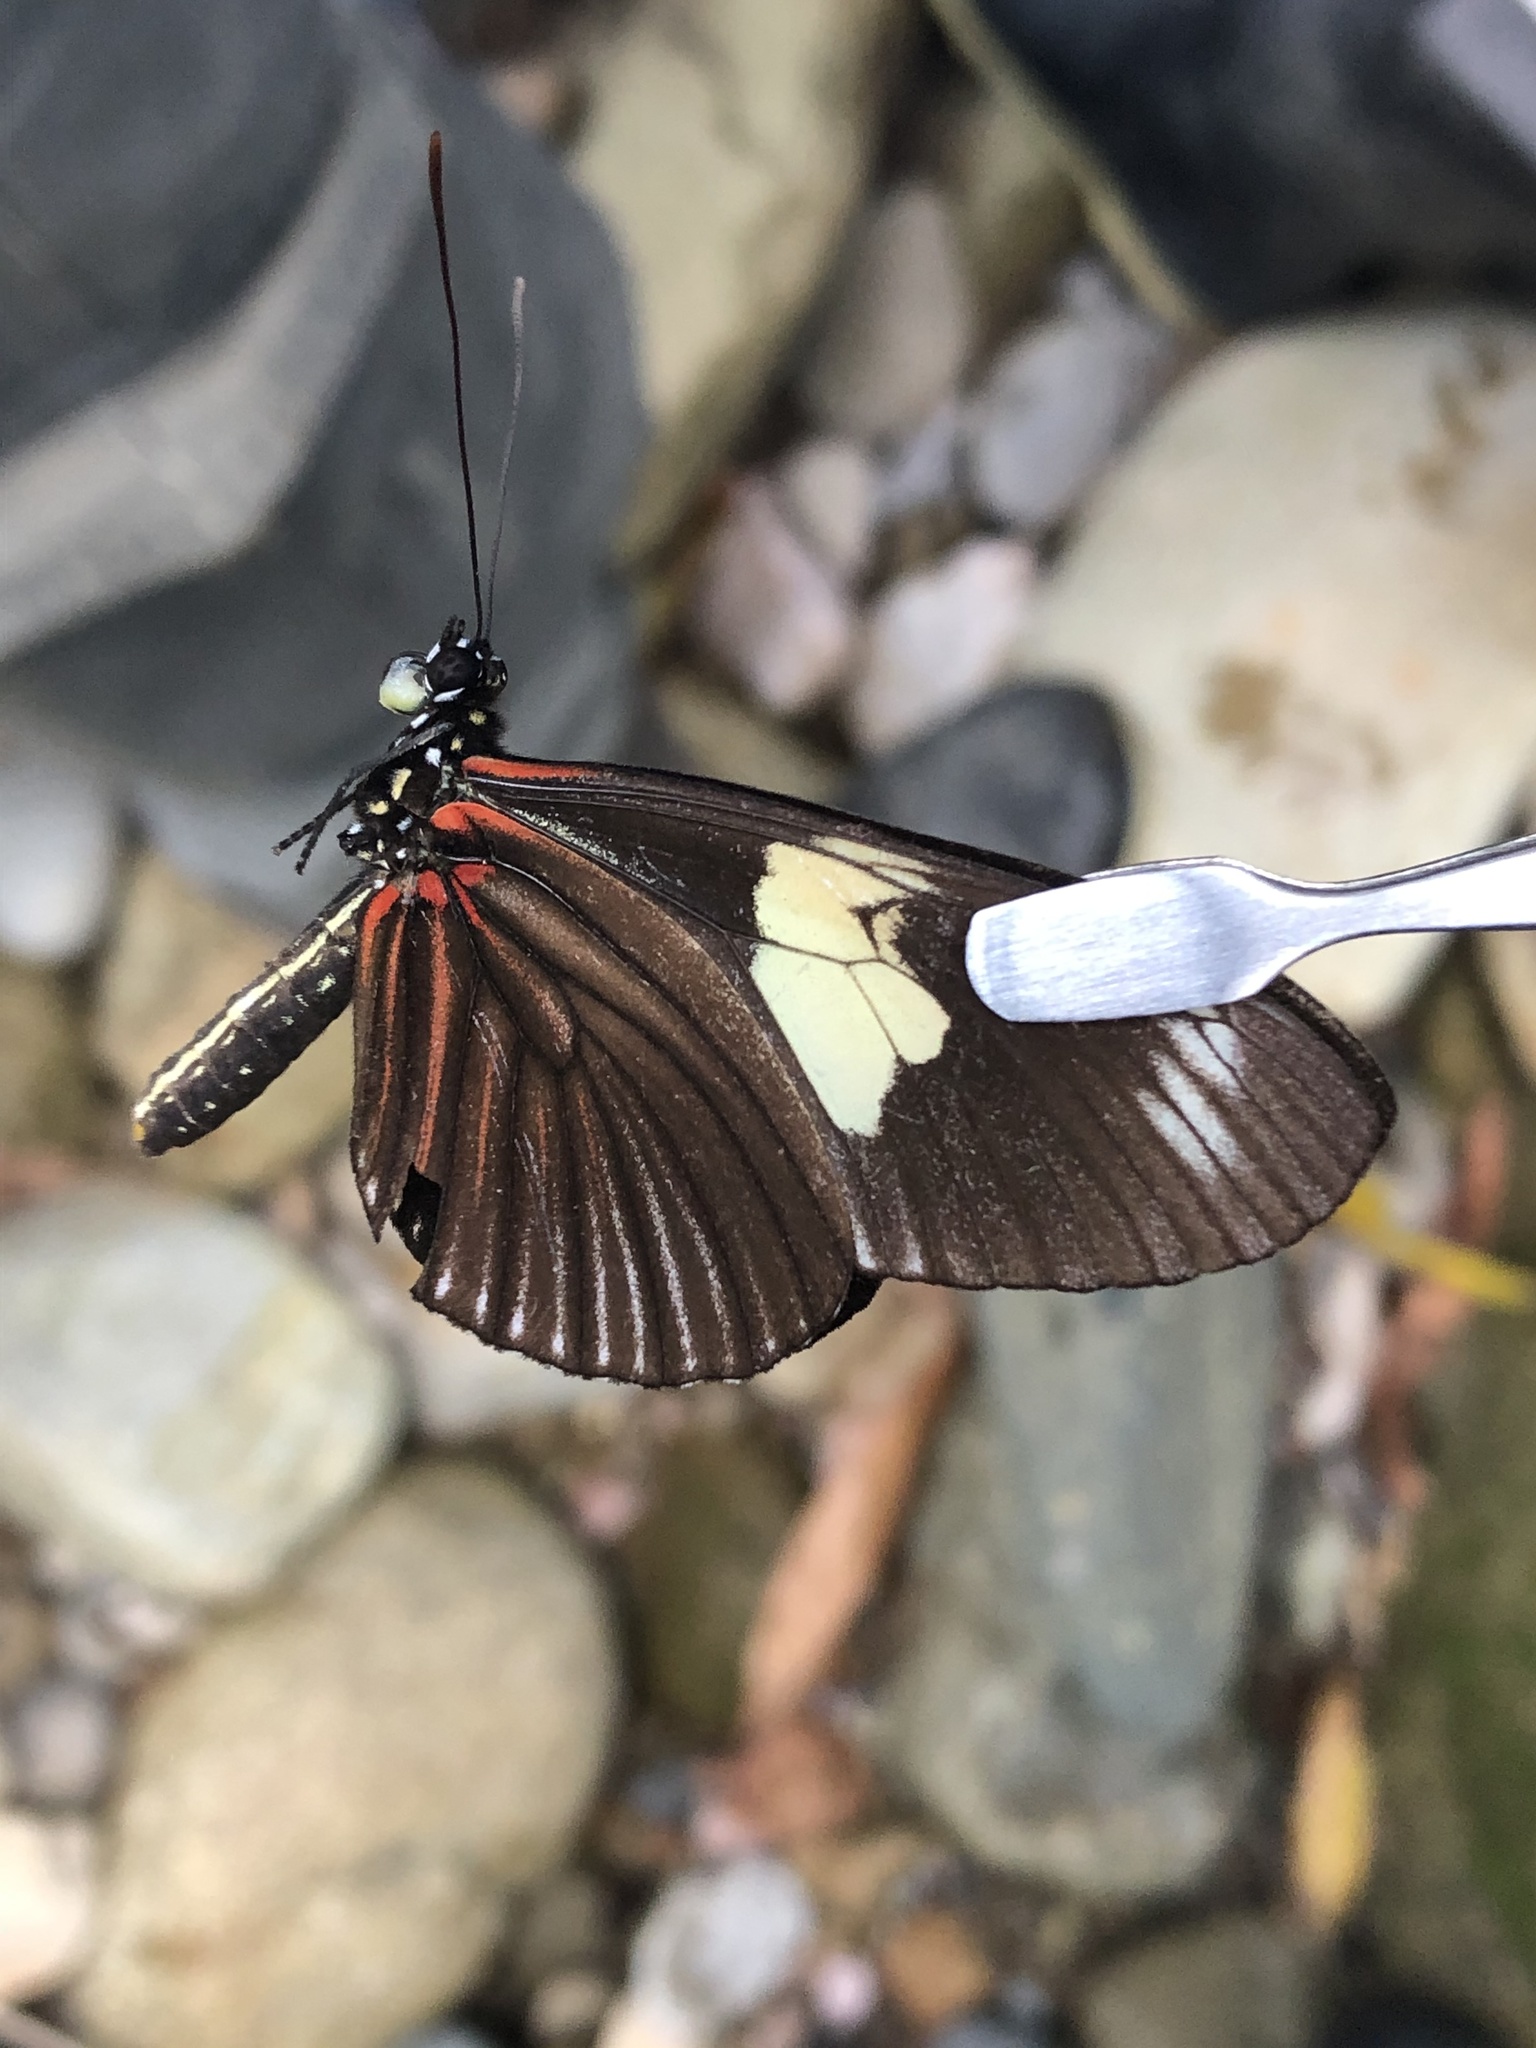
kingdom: Animalia
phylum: Arthropoda
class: Insecta
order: Lepidoptera
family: Nymphalidae
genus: Heliconius
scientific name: Heliconius doris
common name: Doris longwing
